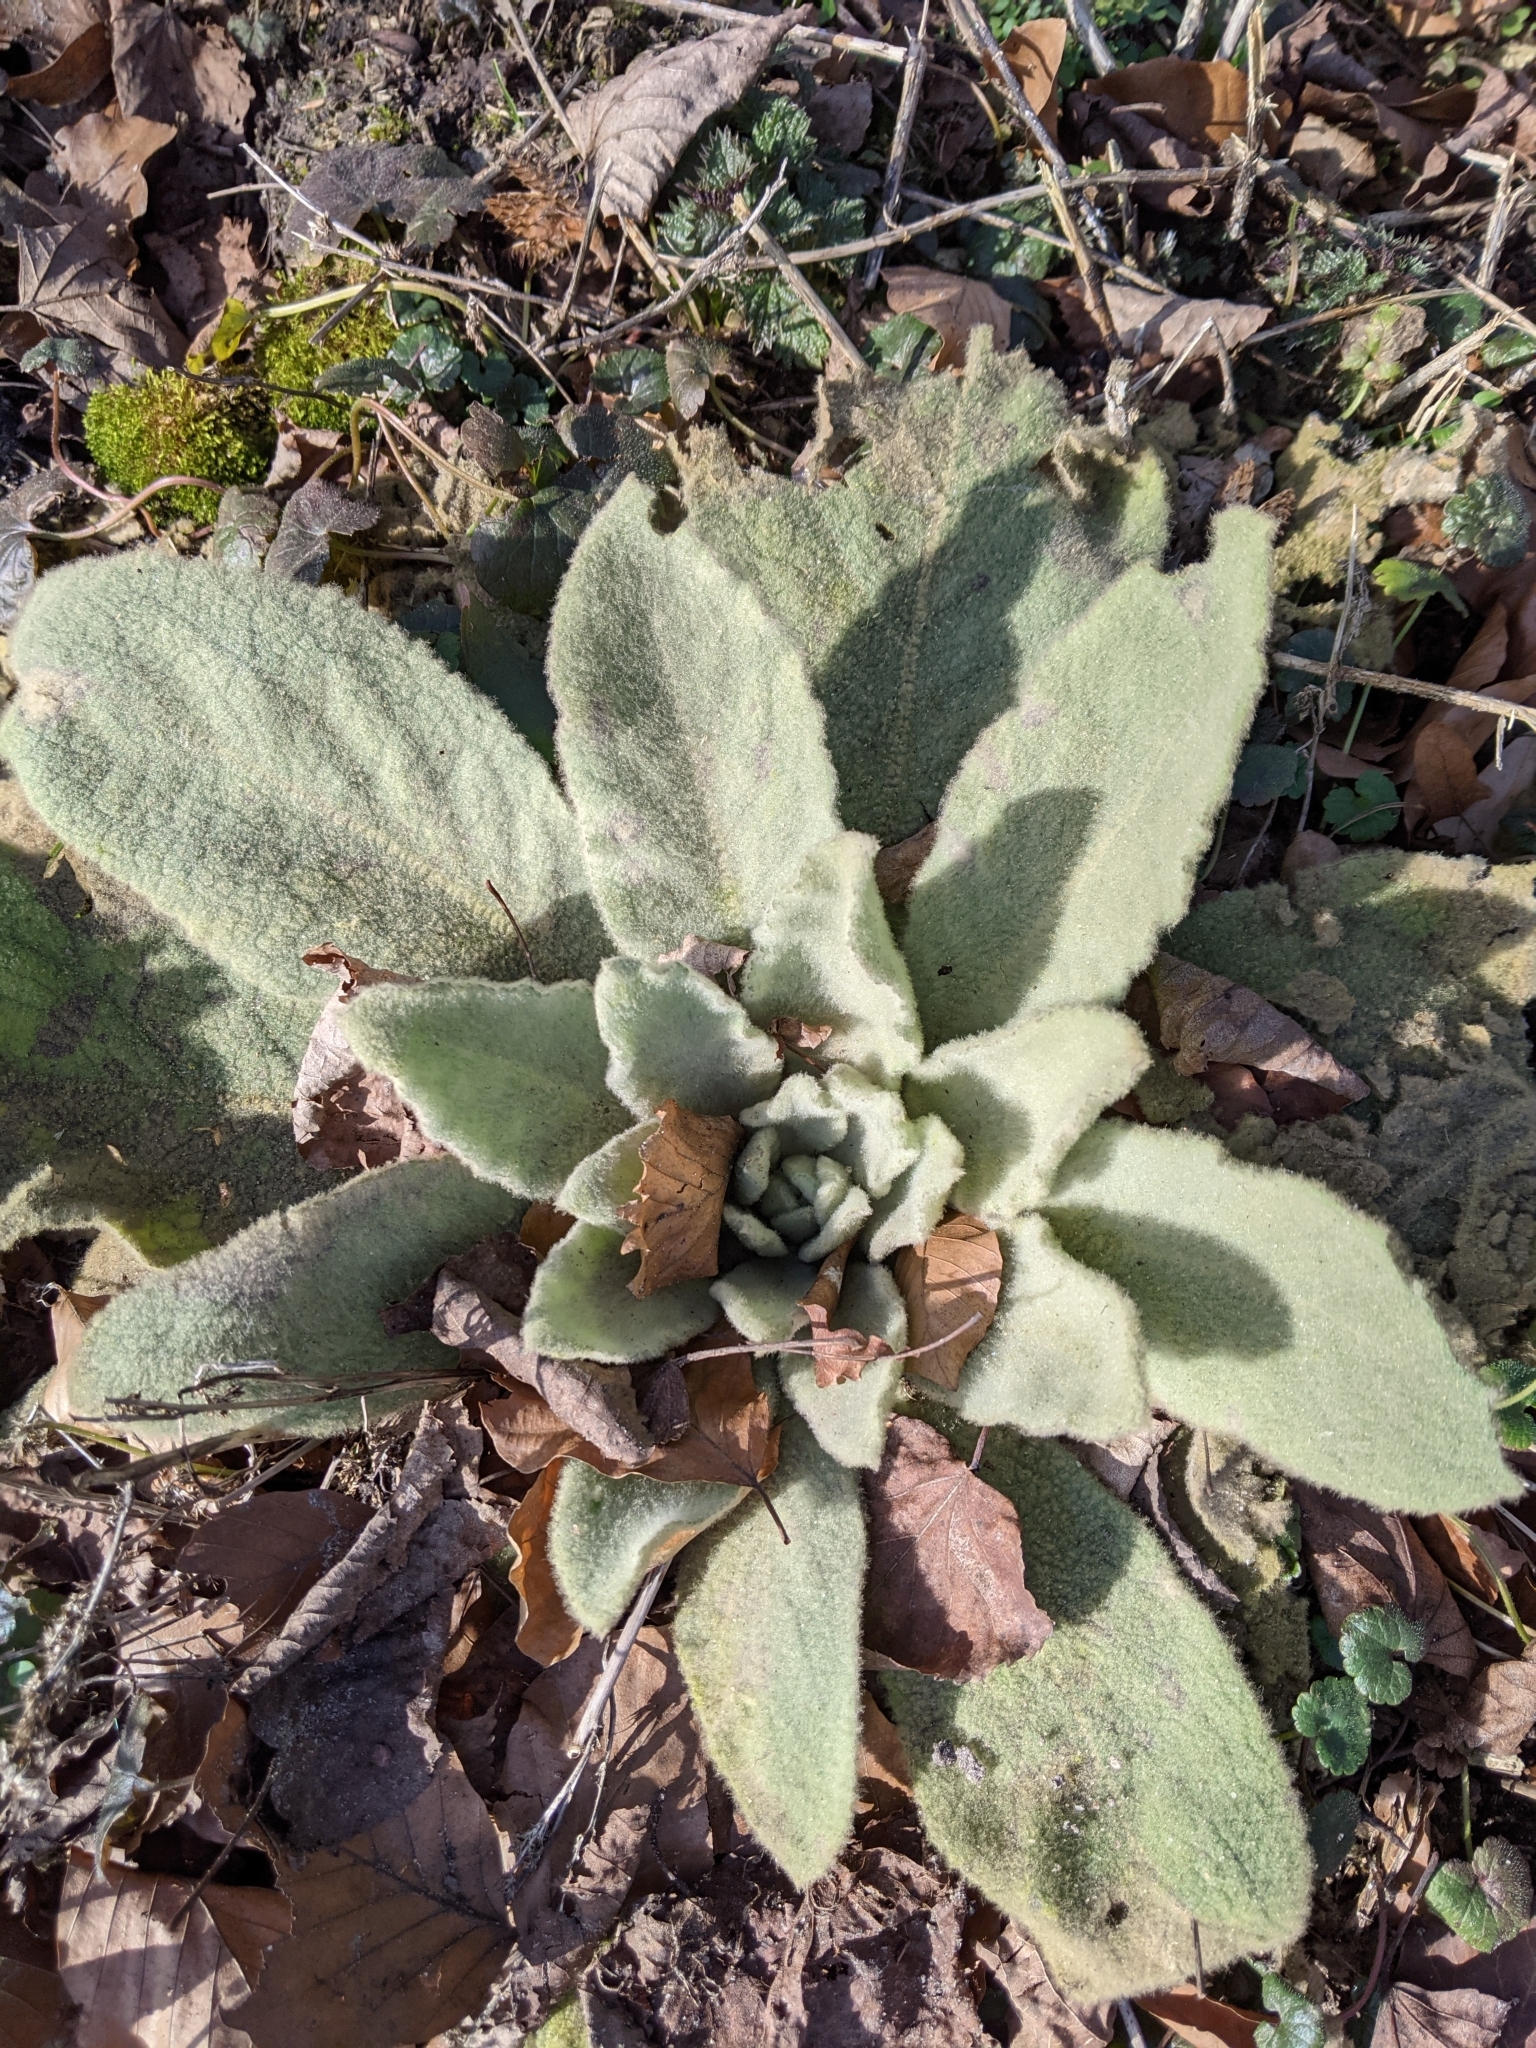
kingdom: Plantae
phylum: Tracheophyta
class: Magnoliopsida
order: Lamiales
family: Scrophulariaceae
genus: Verbascum
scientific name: Verbascum thapsus
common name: Common mullein
